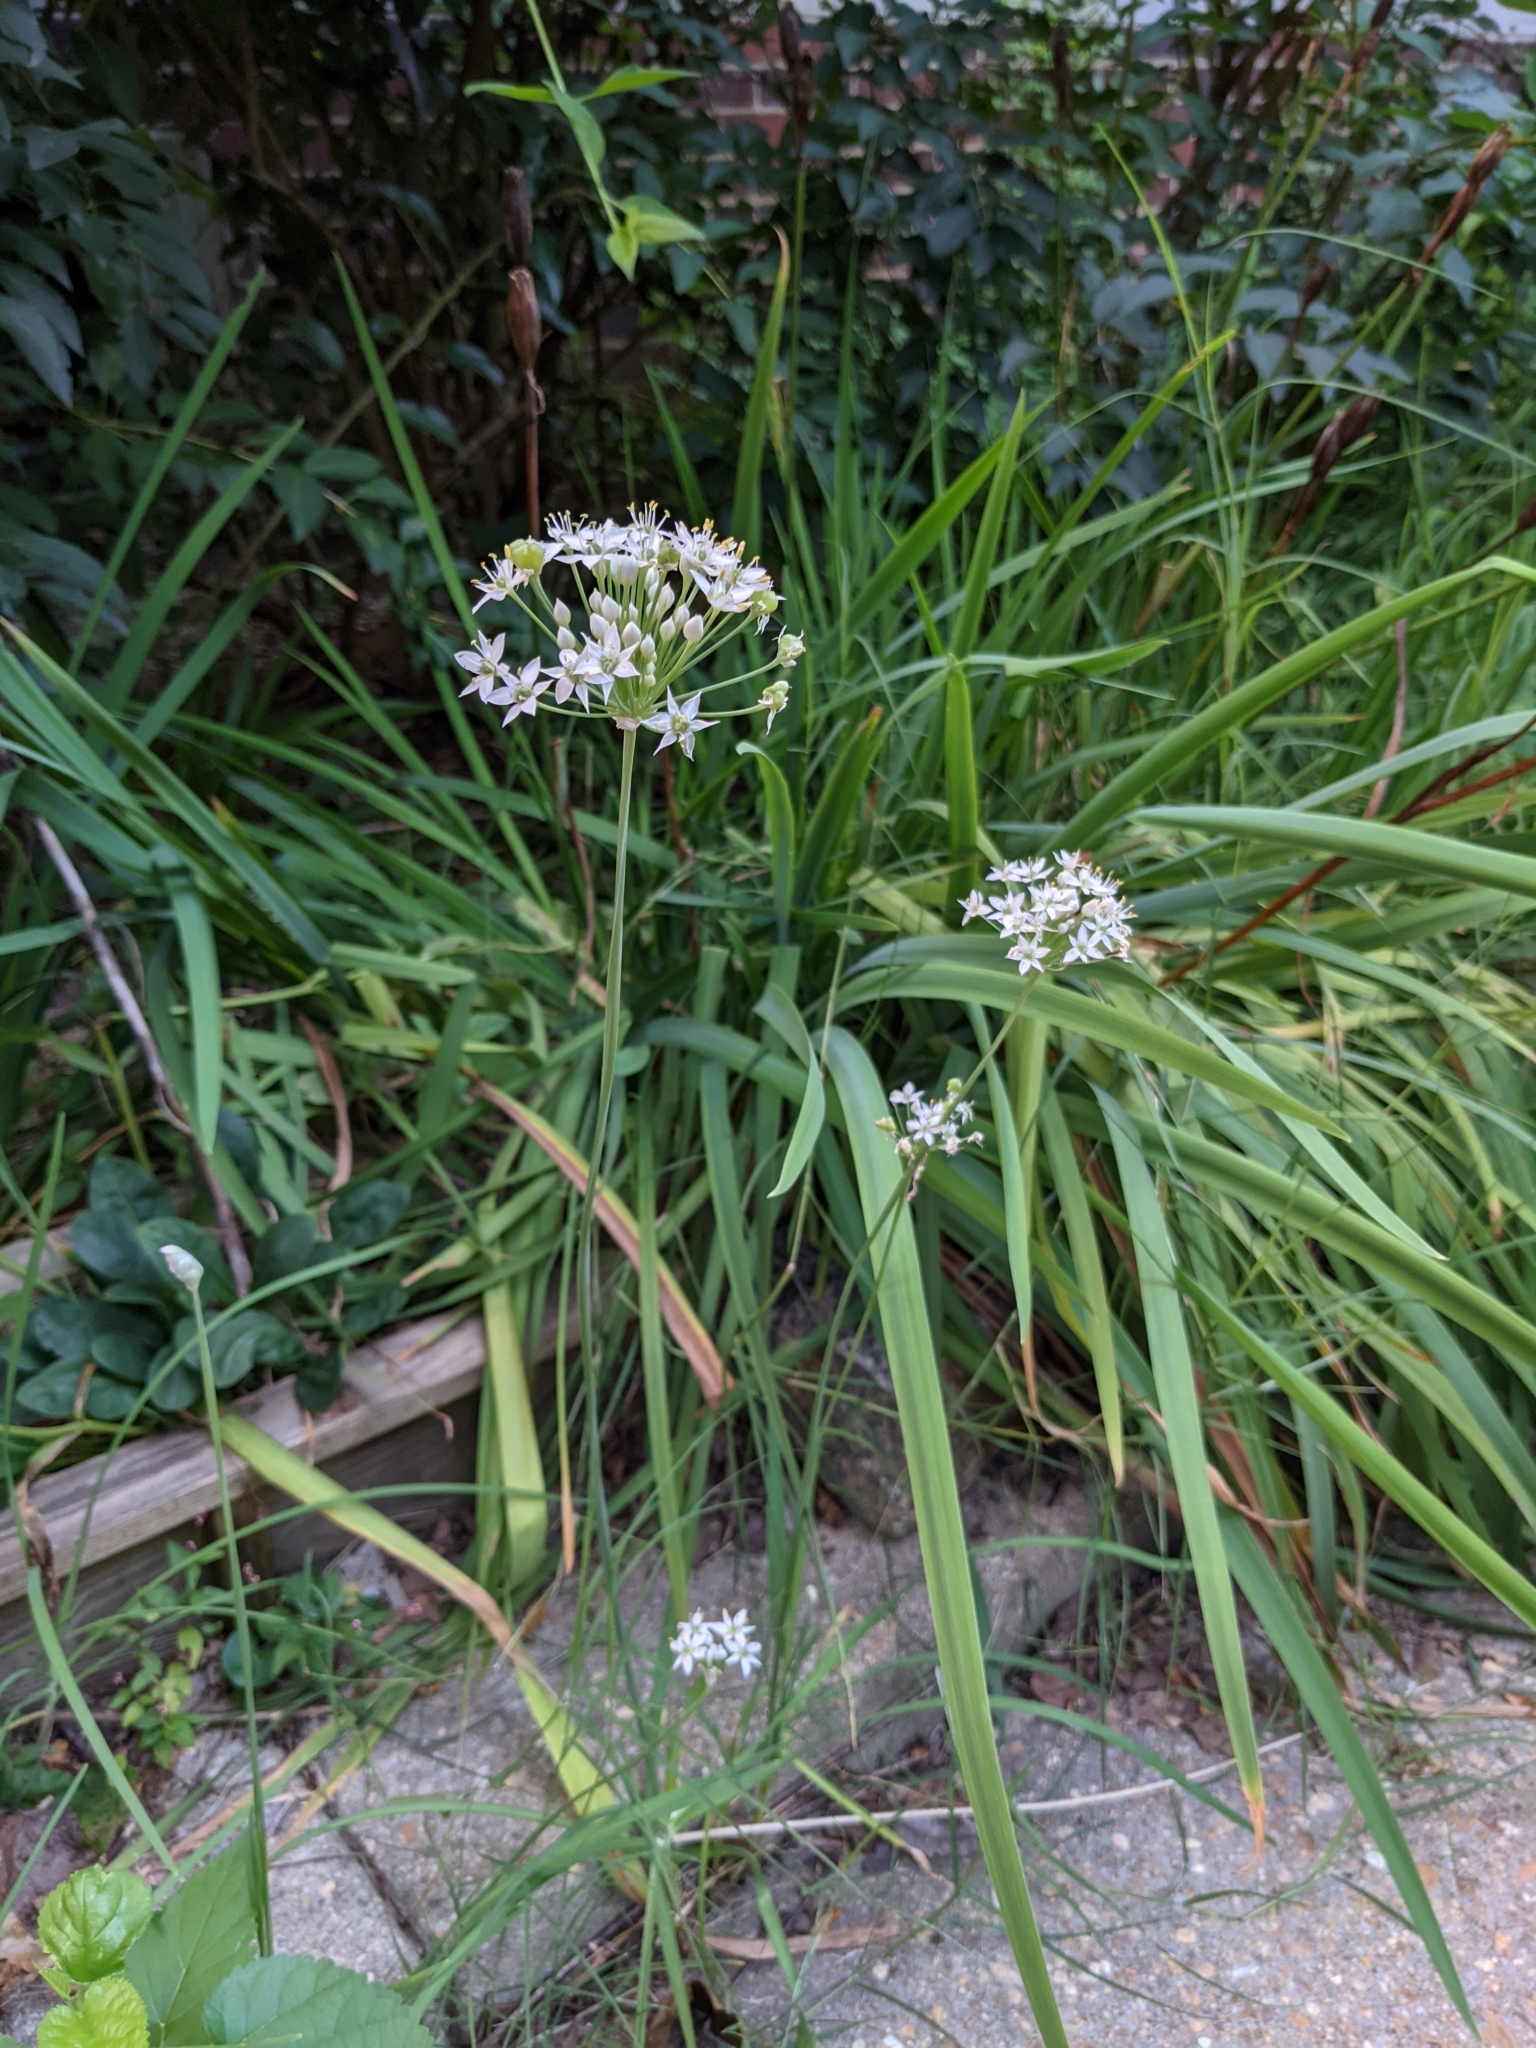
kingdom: Plantae
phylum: Tracheophyta
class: Liliopsida
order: Asparagales
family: Amaryllidaceae
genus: Allium
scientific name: Allium tuberosum
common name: Chinese chives
